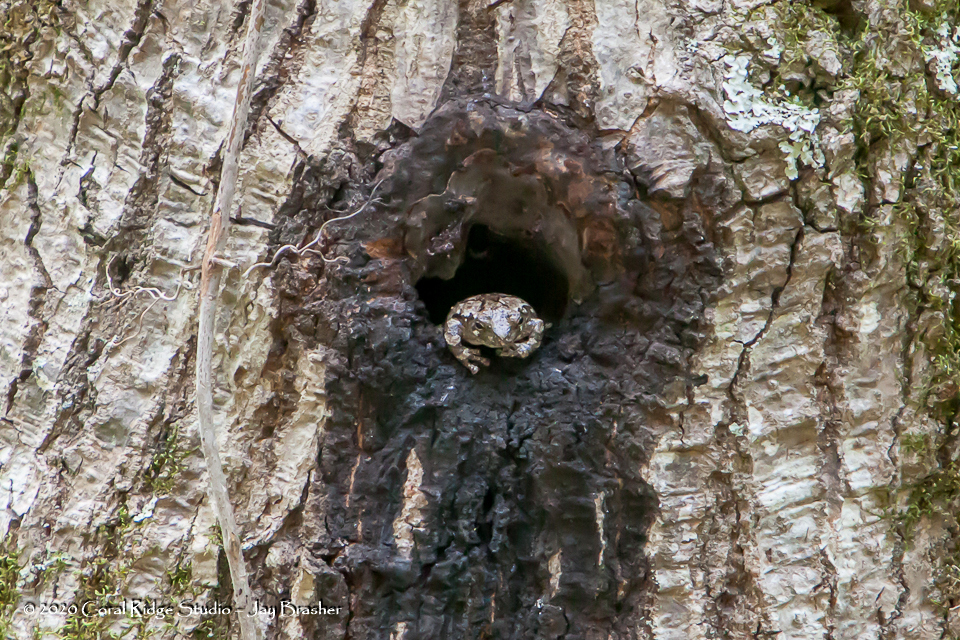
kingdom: Animalia
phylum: Chordata
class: Amphibia
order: Anura
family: Hylidae
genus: Dryophytes
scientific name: Dryophytes chrysoscelis
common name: Cope's gray treefrog
